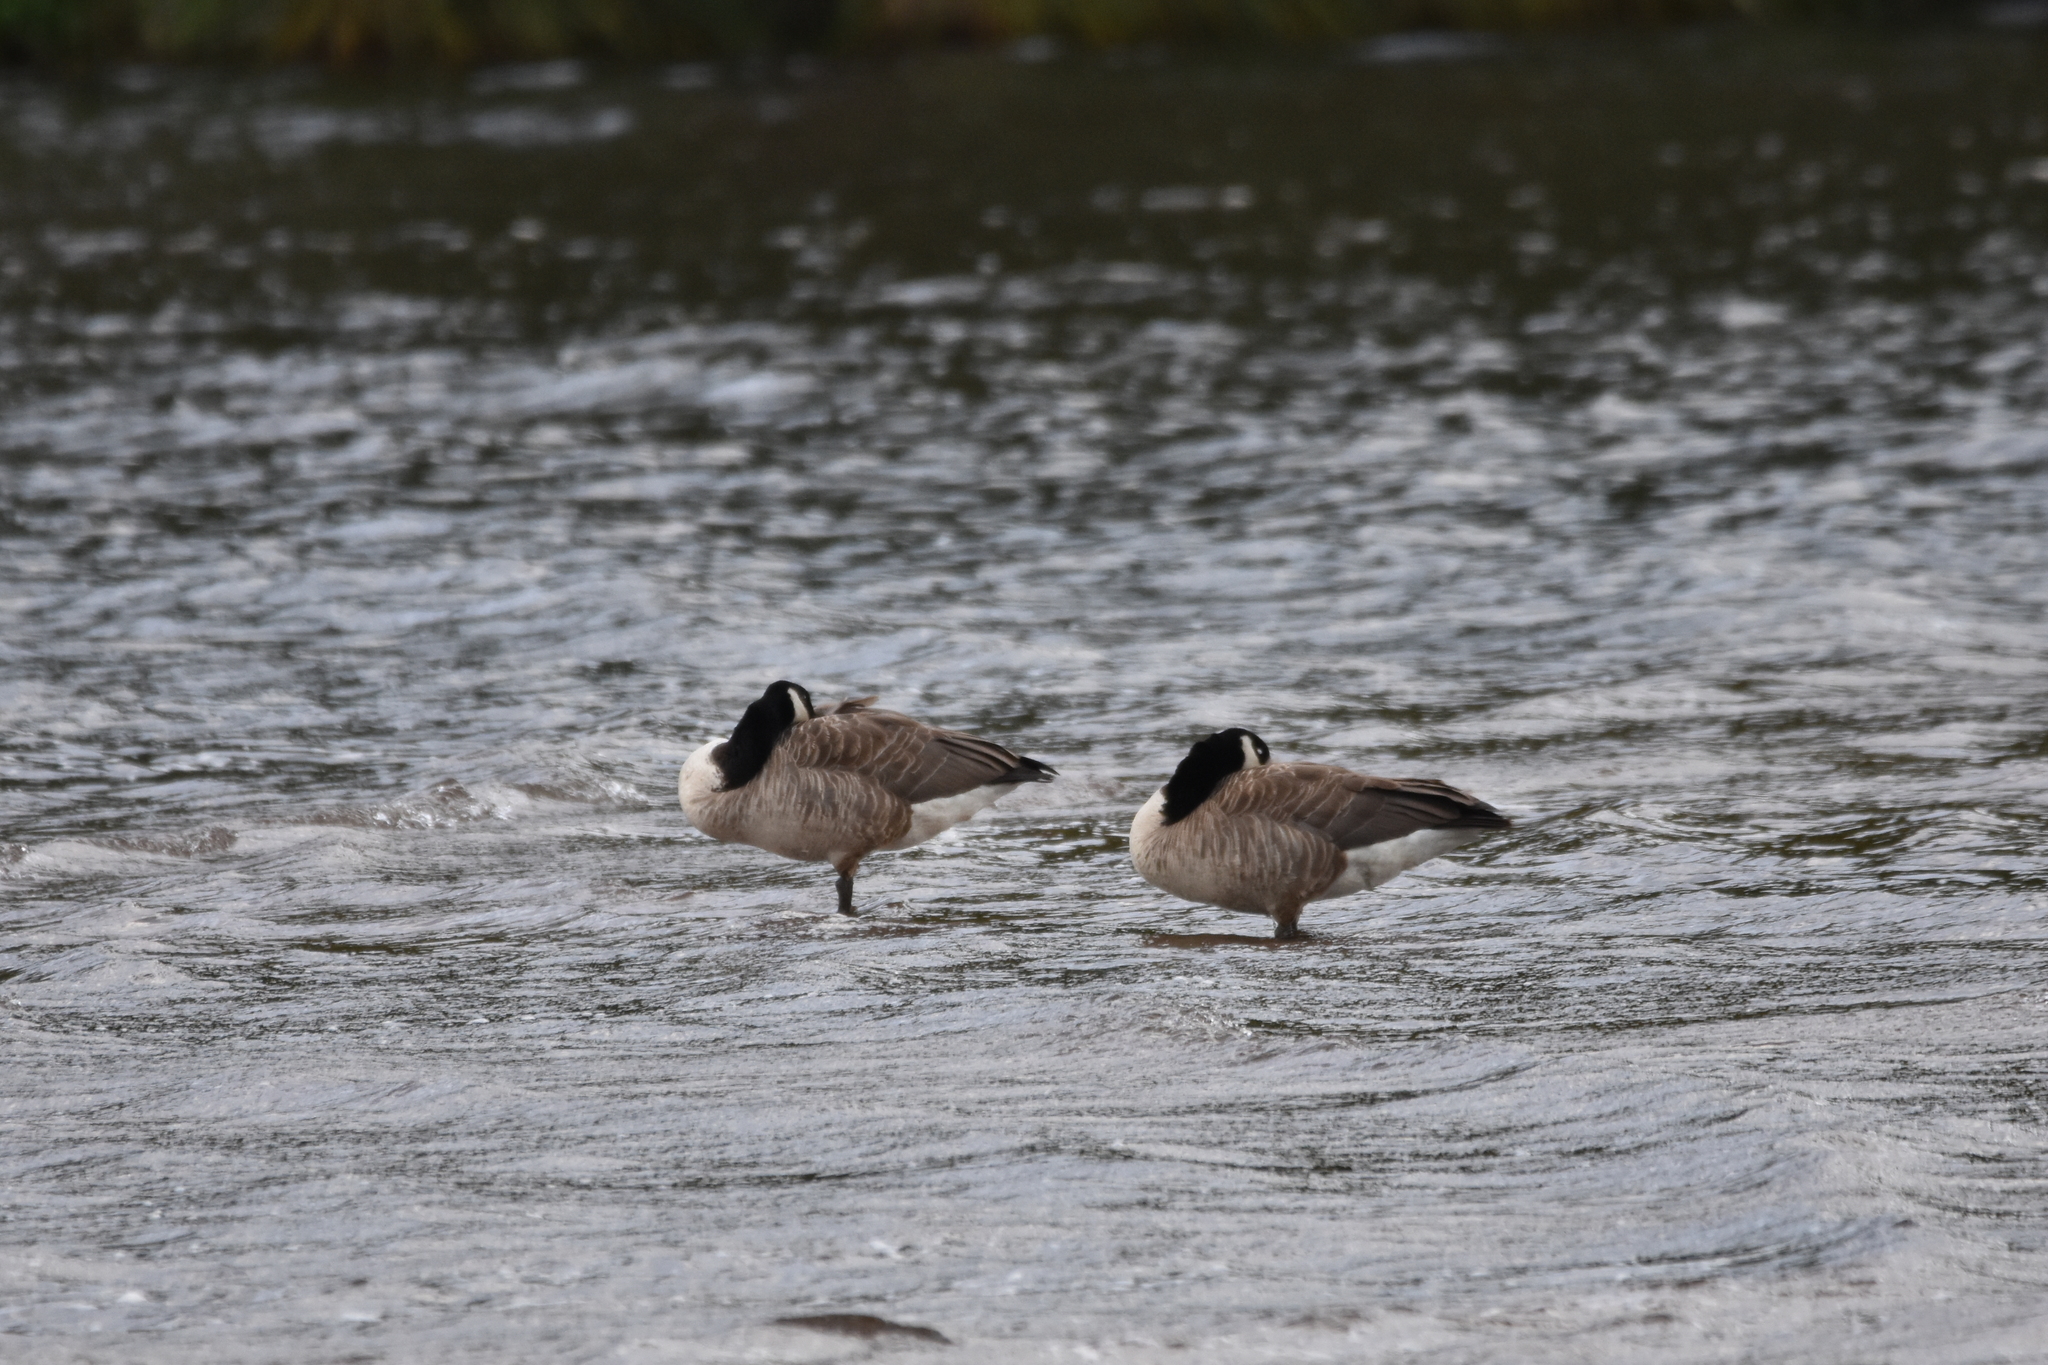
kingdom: Animalia
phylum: Chordata
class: Aves
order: Anseriformes
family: Anatidae
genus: Branta
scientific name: Branta canadensis
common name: Canada goose
